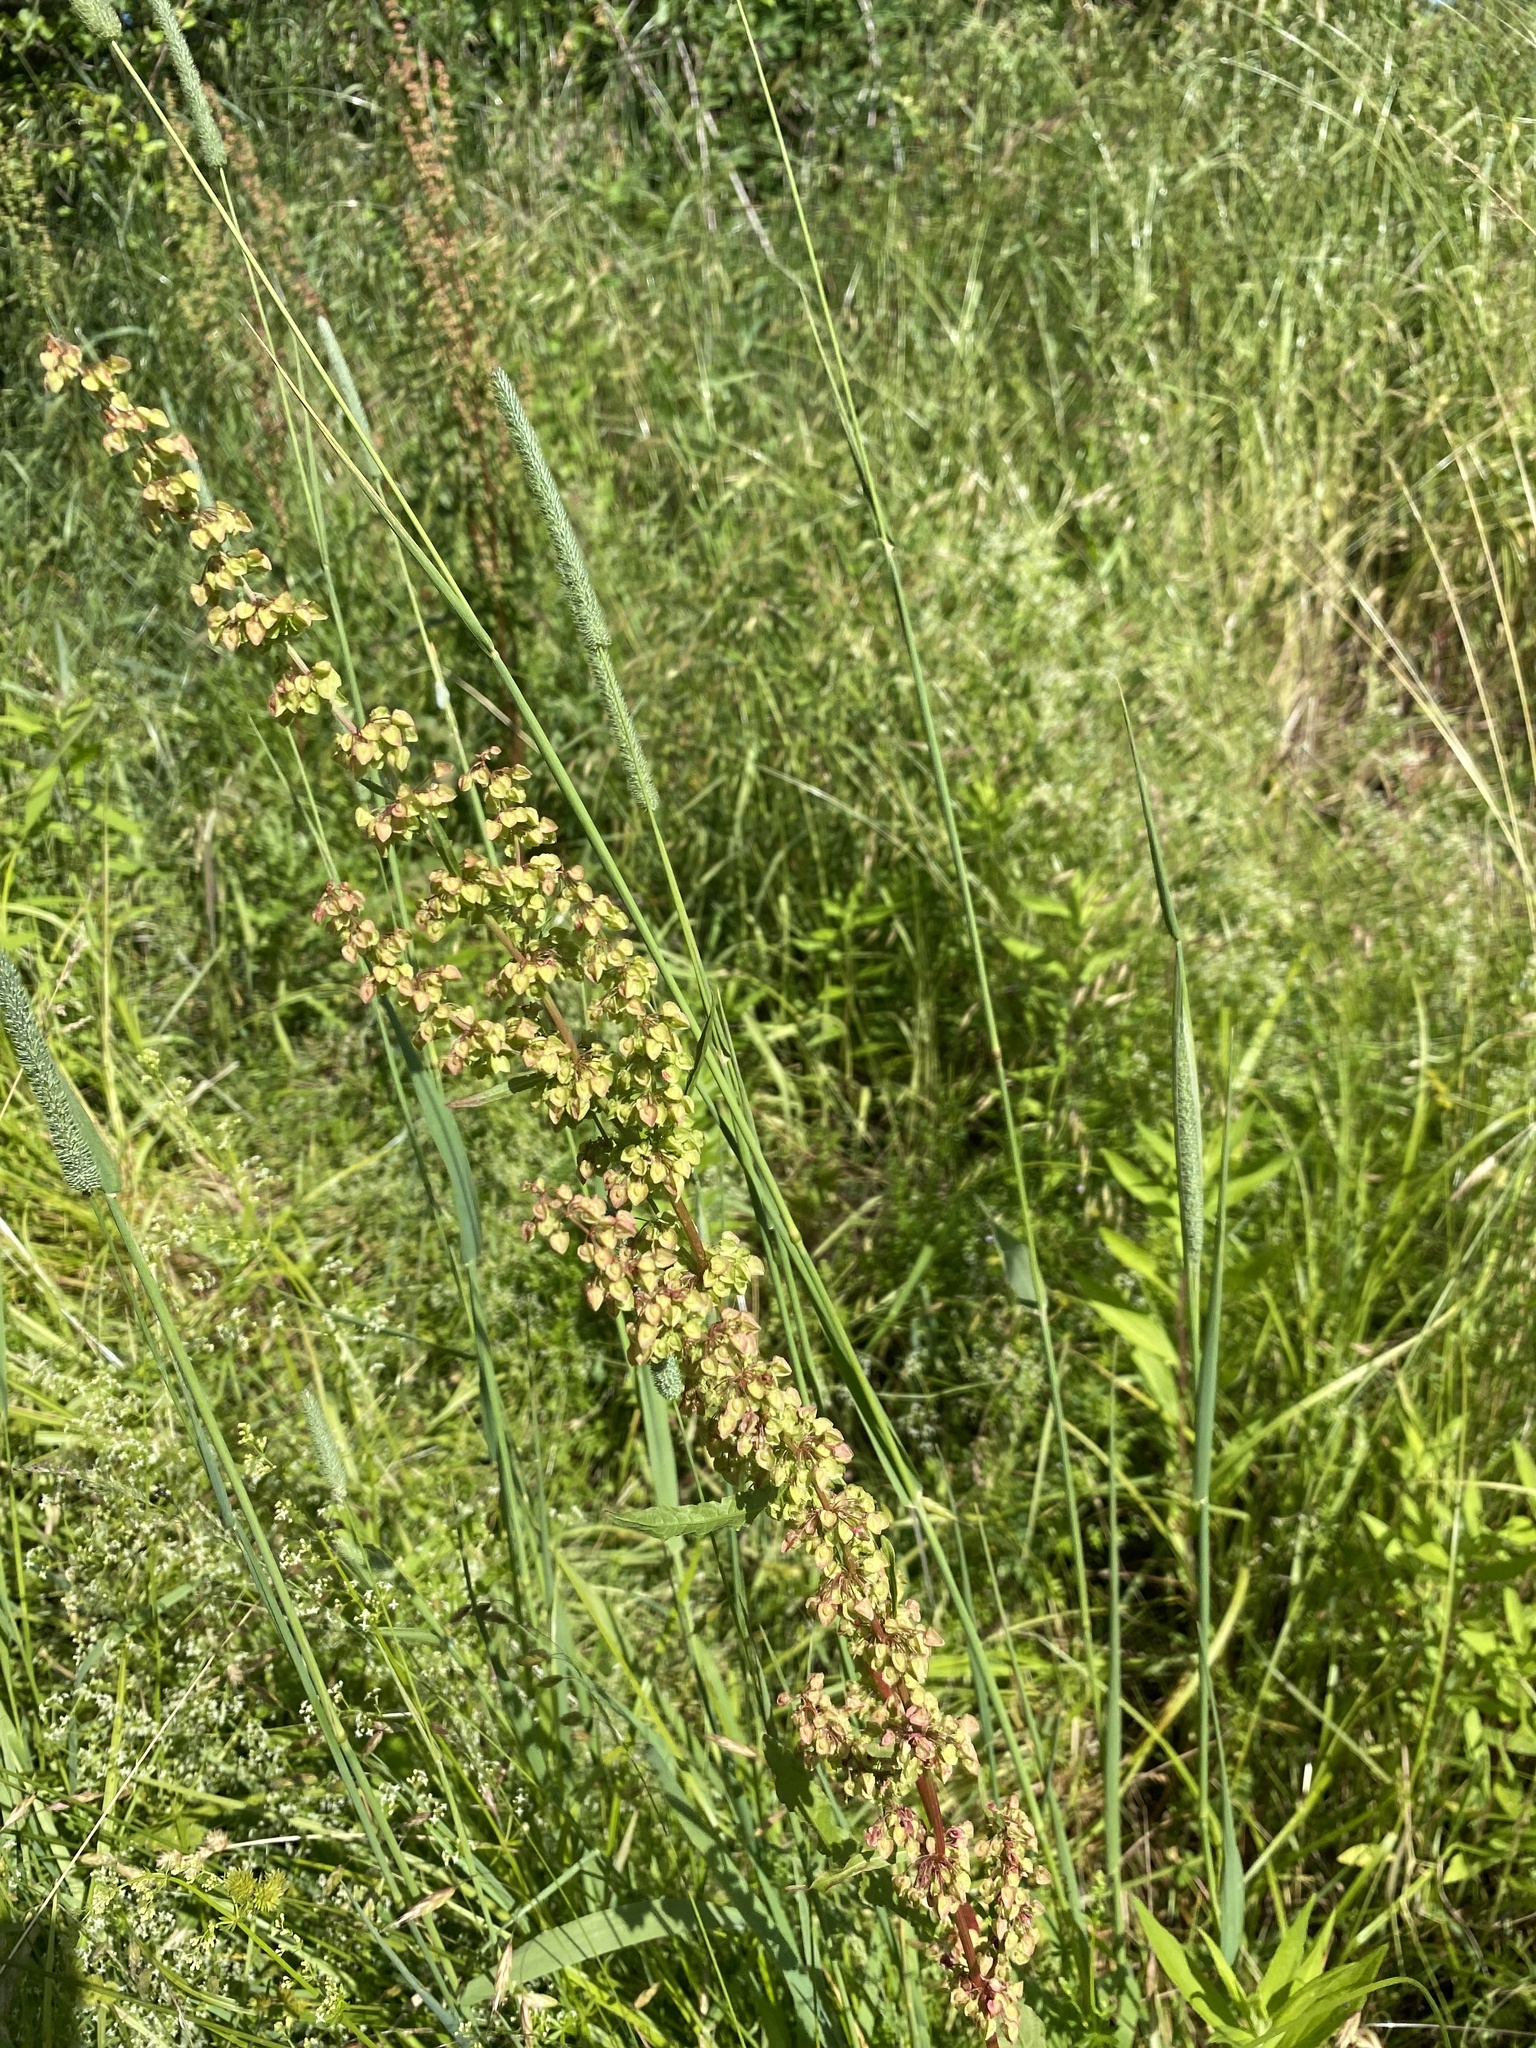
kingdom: Plantae
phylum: Tracheophyta
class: Magnoliopsida
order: Caryophyllales
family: Polygonaceae
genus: Rumex
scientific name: Rumex crispus
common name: Curled dock
